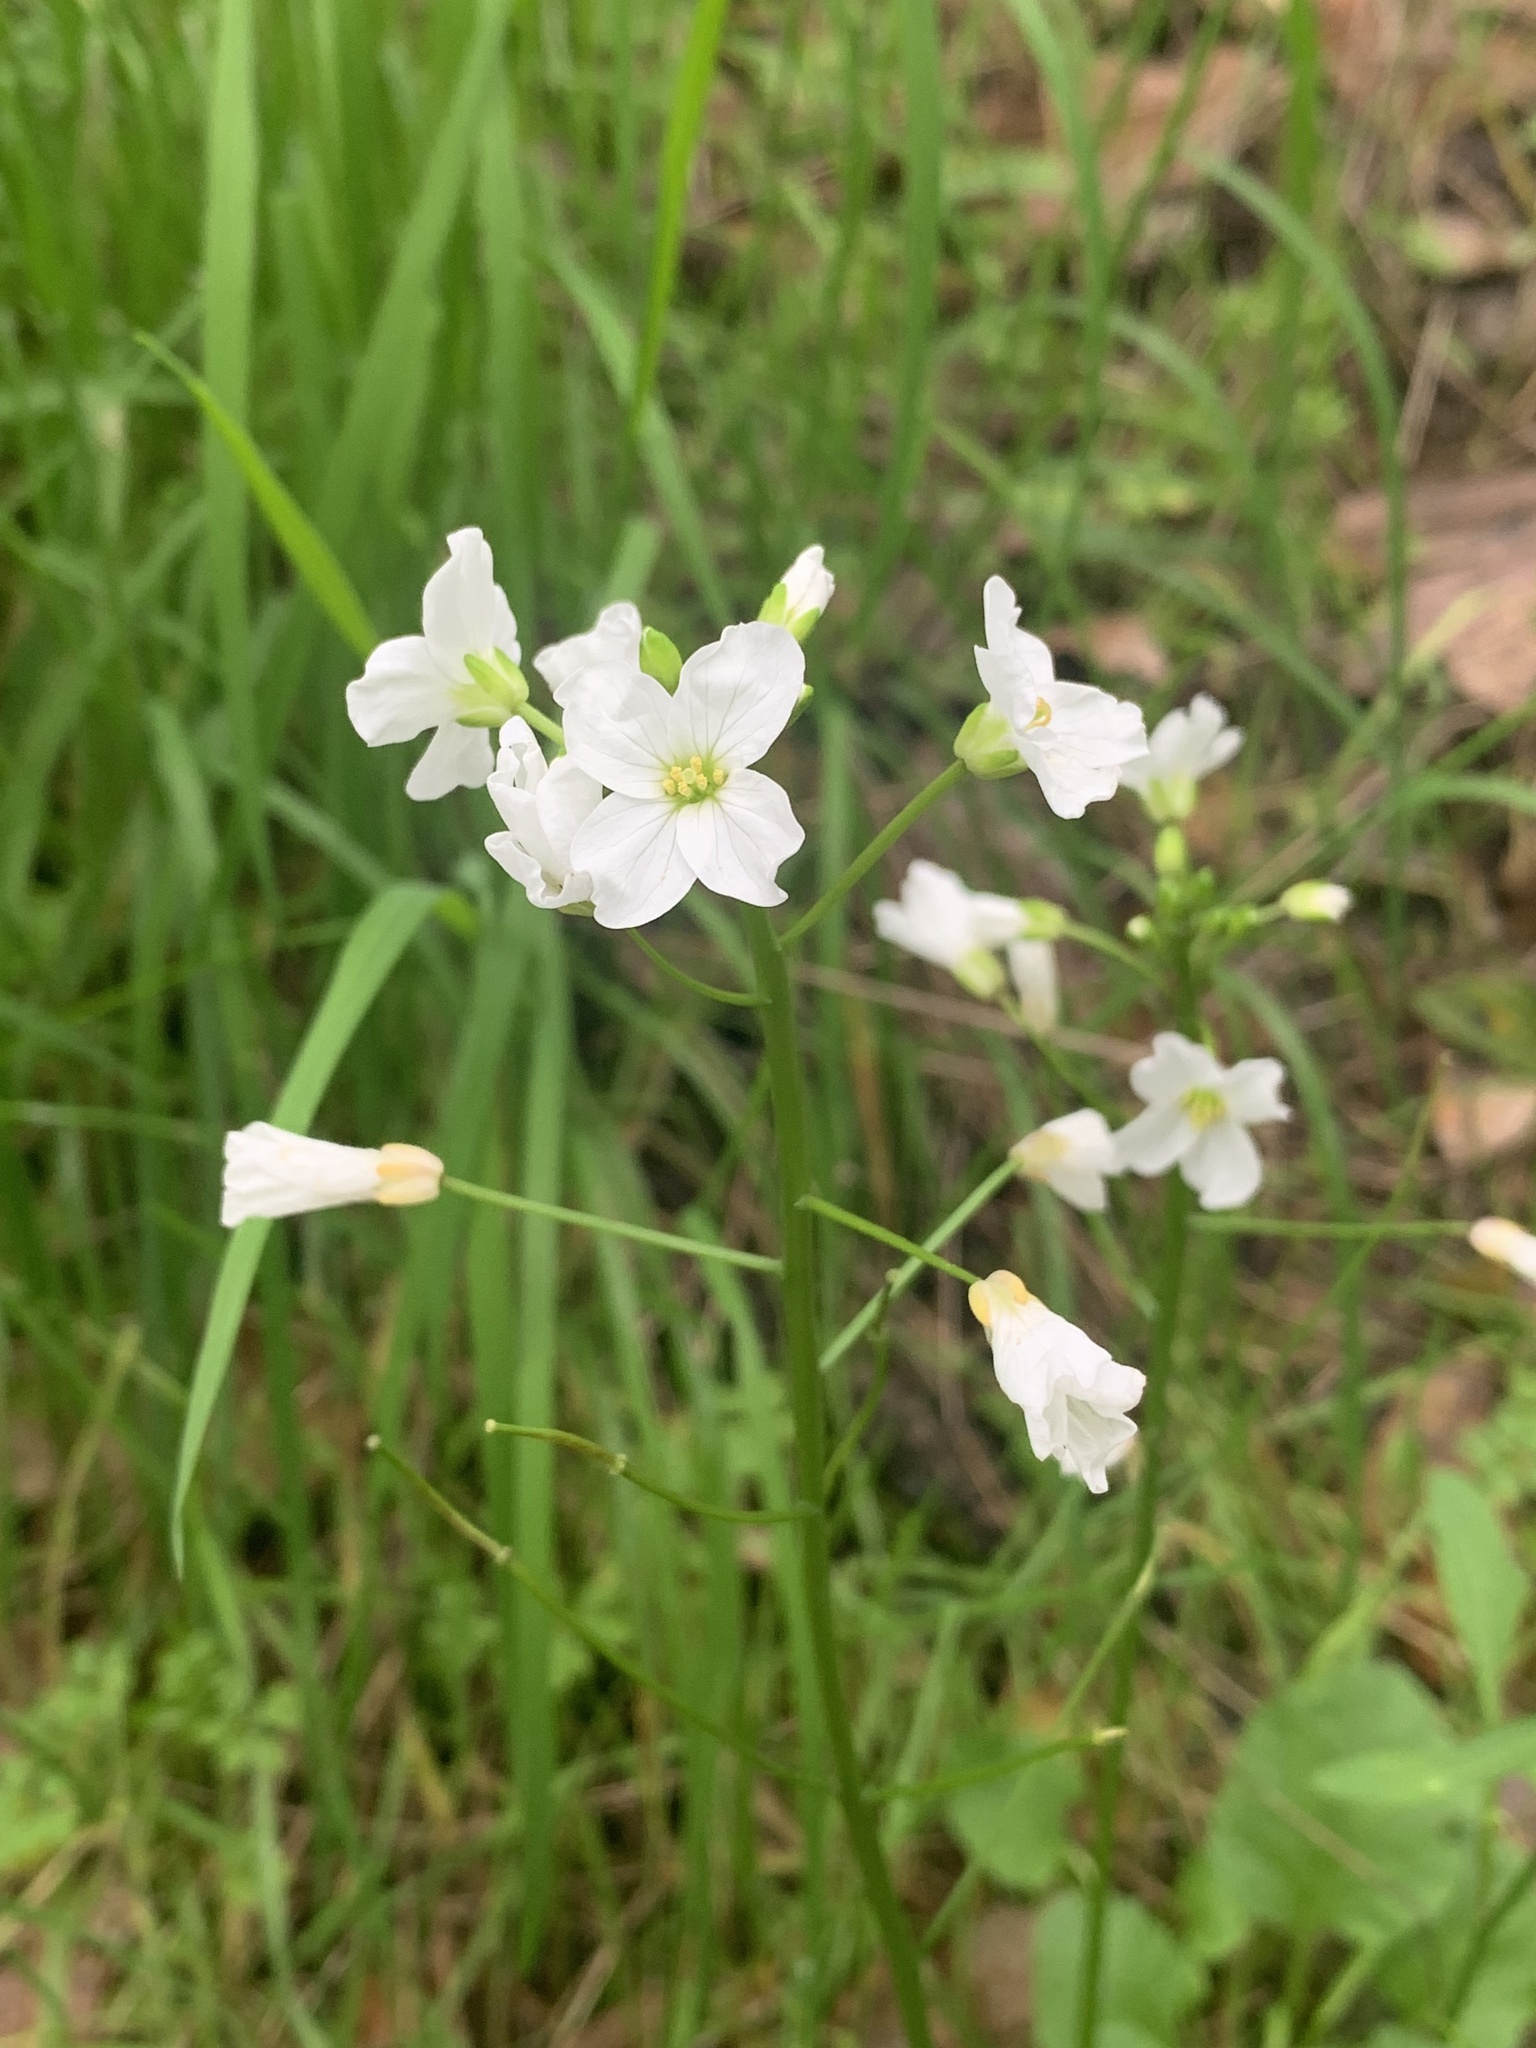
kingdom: Plantae
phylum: Tracheophyta
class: Magnoliopsida
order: Brassicales
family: Brassicaceae
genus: Cardamine
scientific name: Cardamine californica
